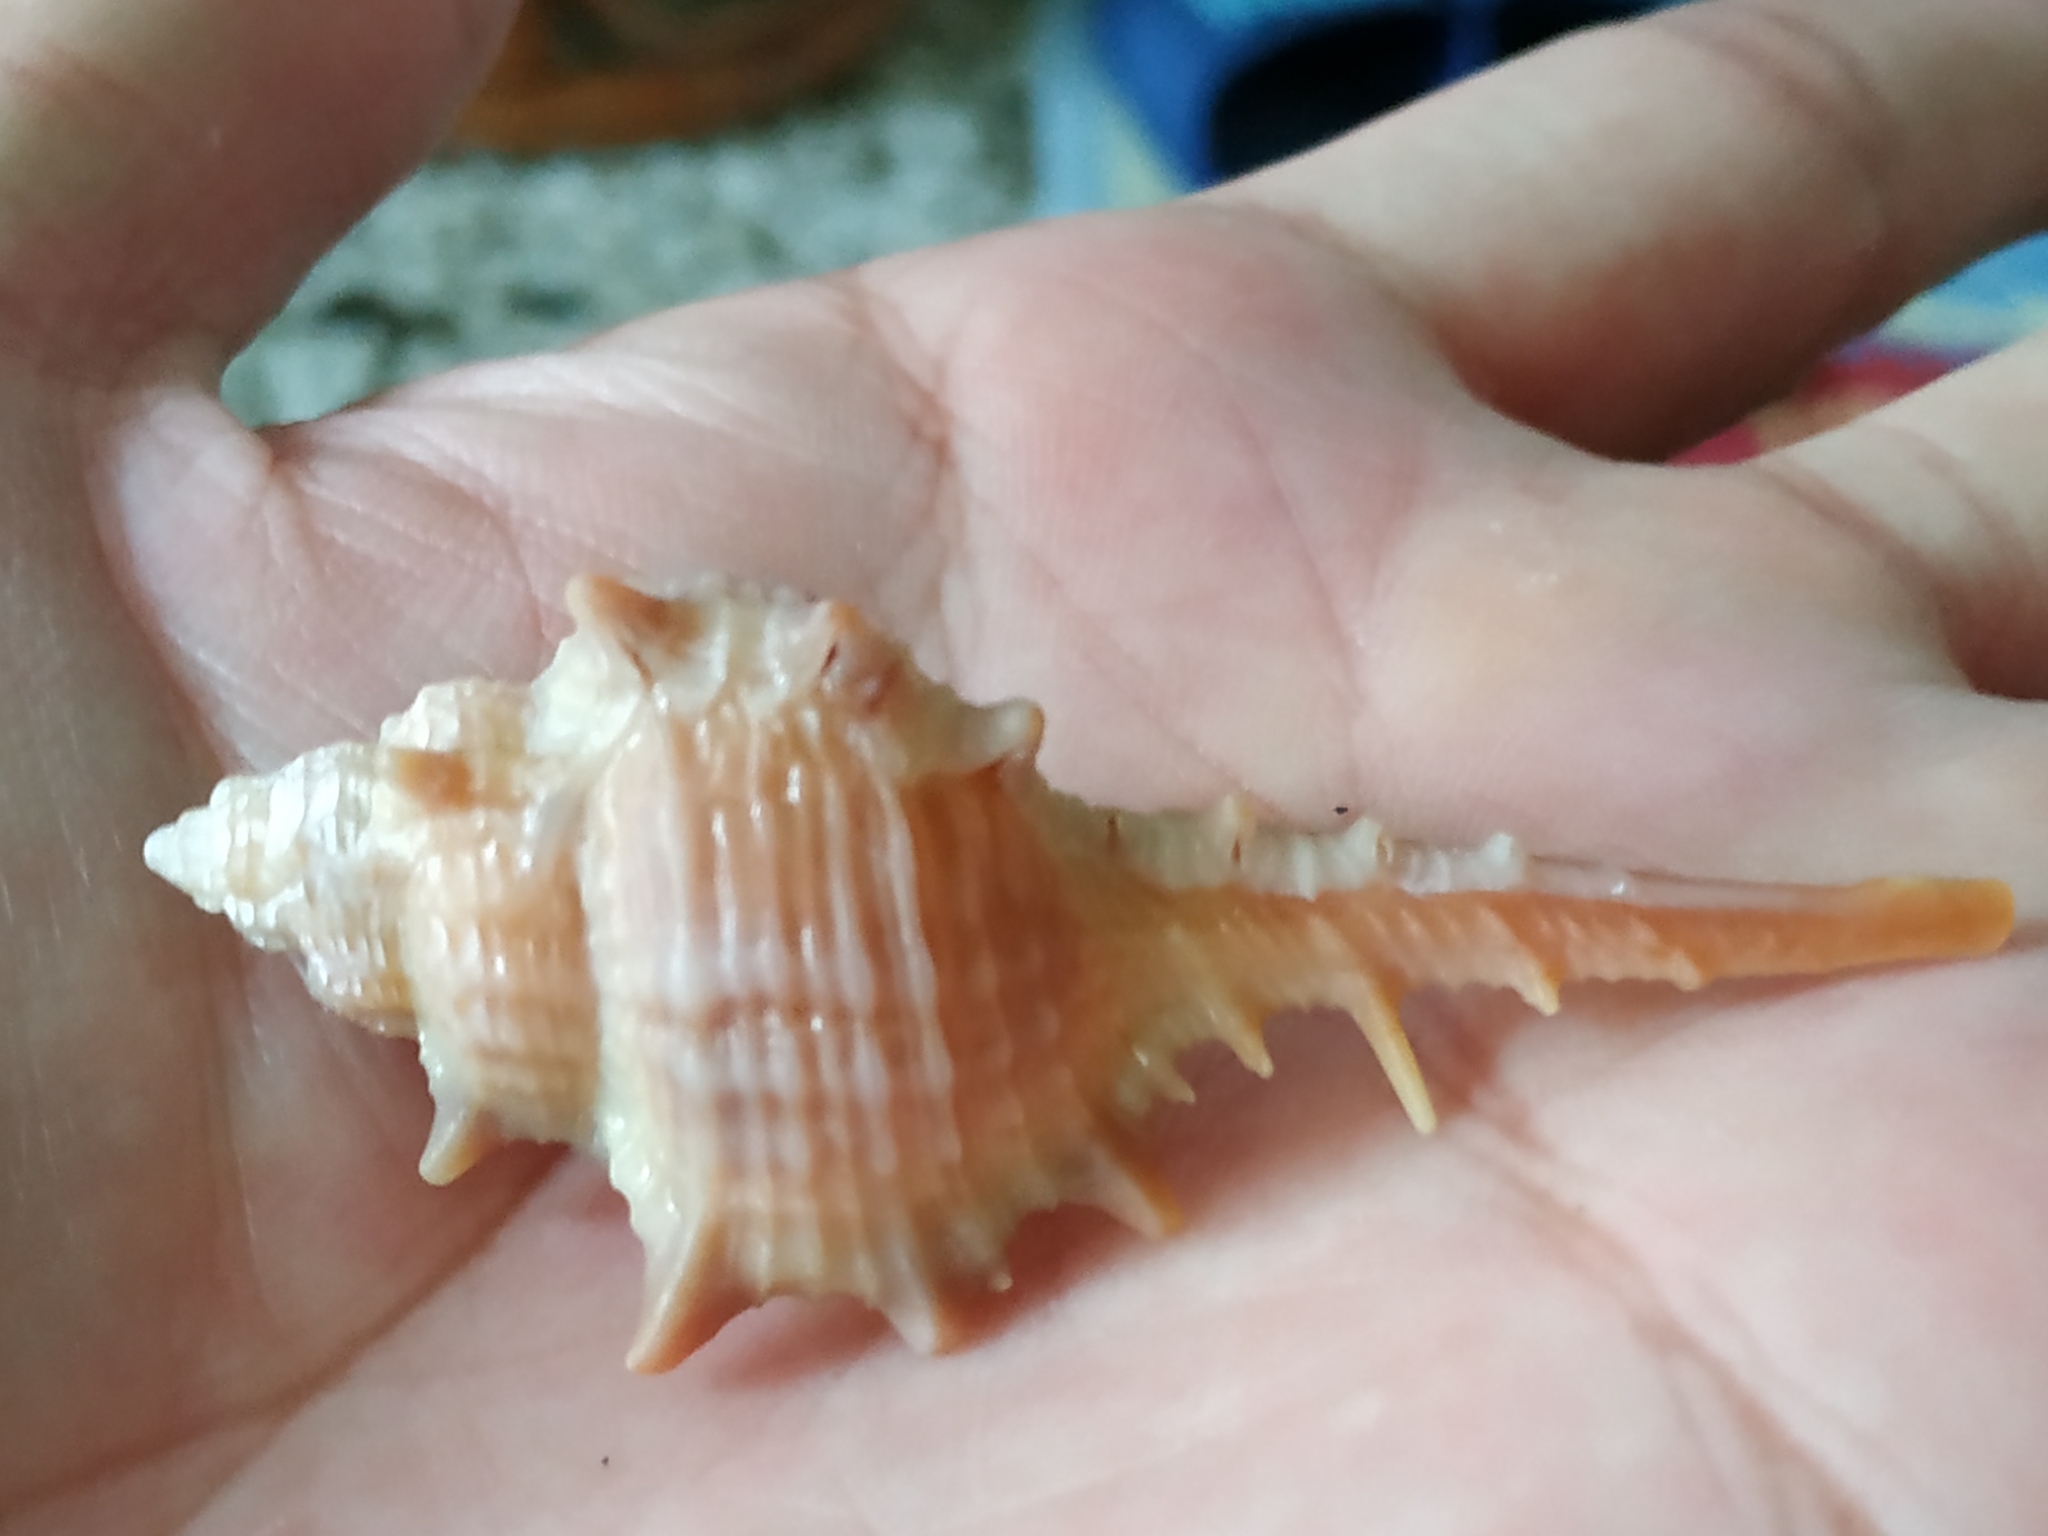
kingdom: Animalia
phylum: Mollusca
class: Gastropoda
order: Neogastropoda
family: Muricidae
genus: Murex
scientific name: Murex trapa
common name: Rare spined murex
